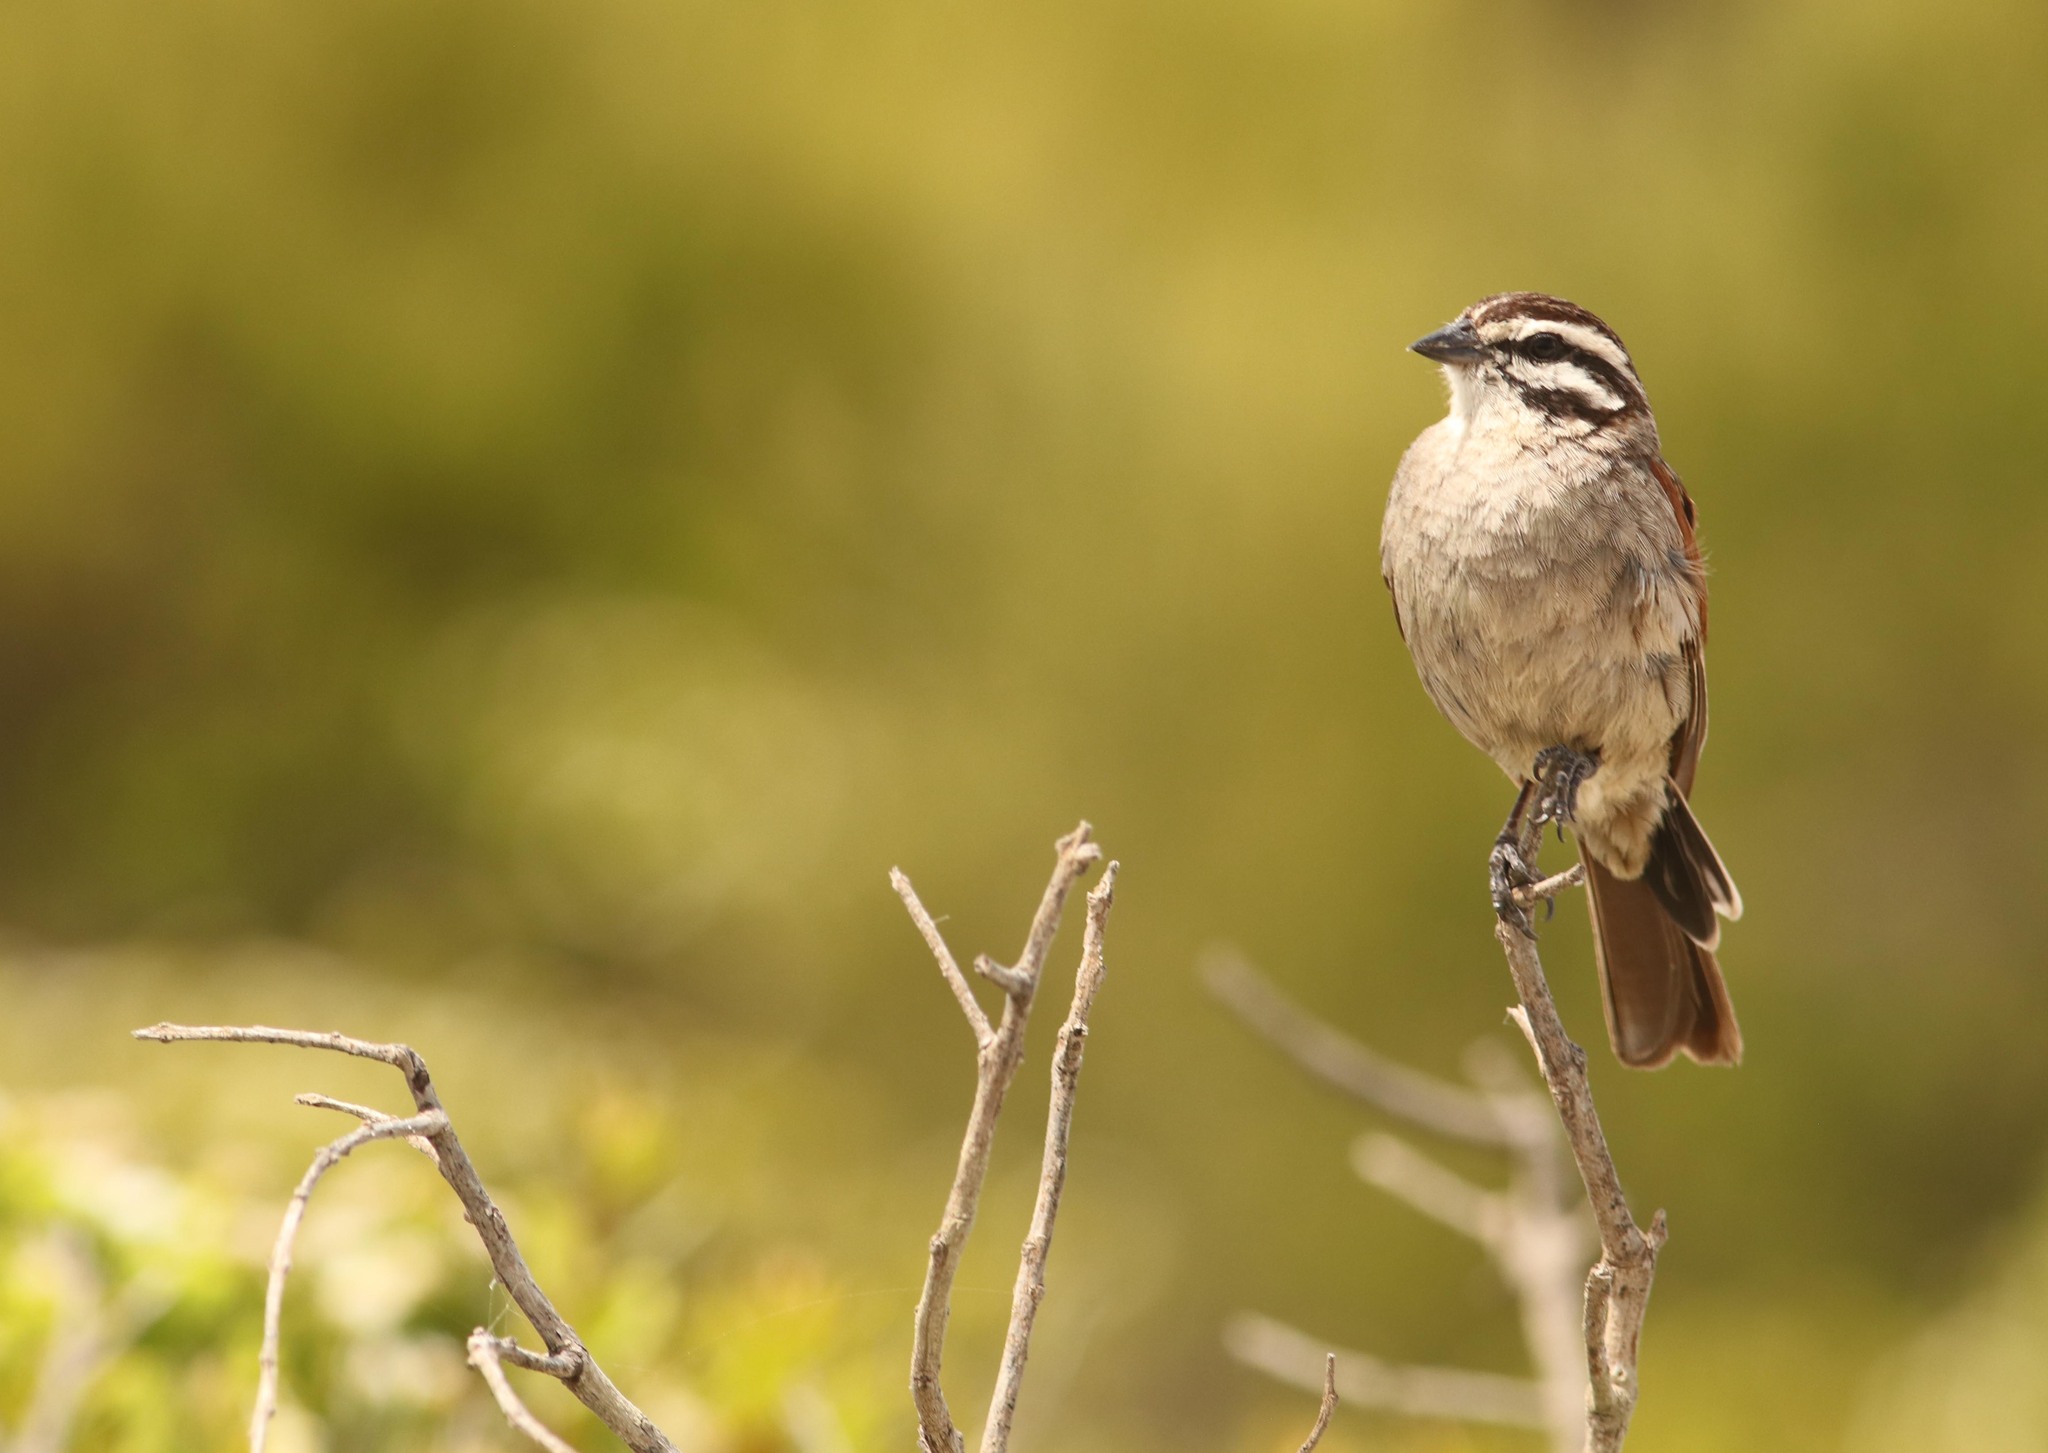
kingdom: Animalia
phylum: Chordata
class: Aves
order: Passeriformes
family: Emberizidae
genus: Emberiza
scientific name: Emberiza capensis
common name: Cape bunting
